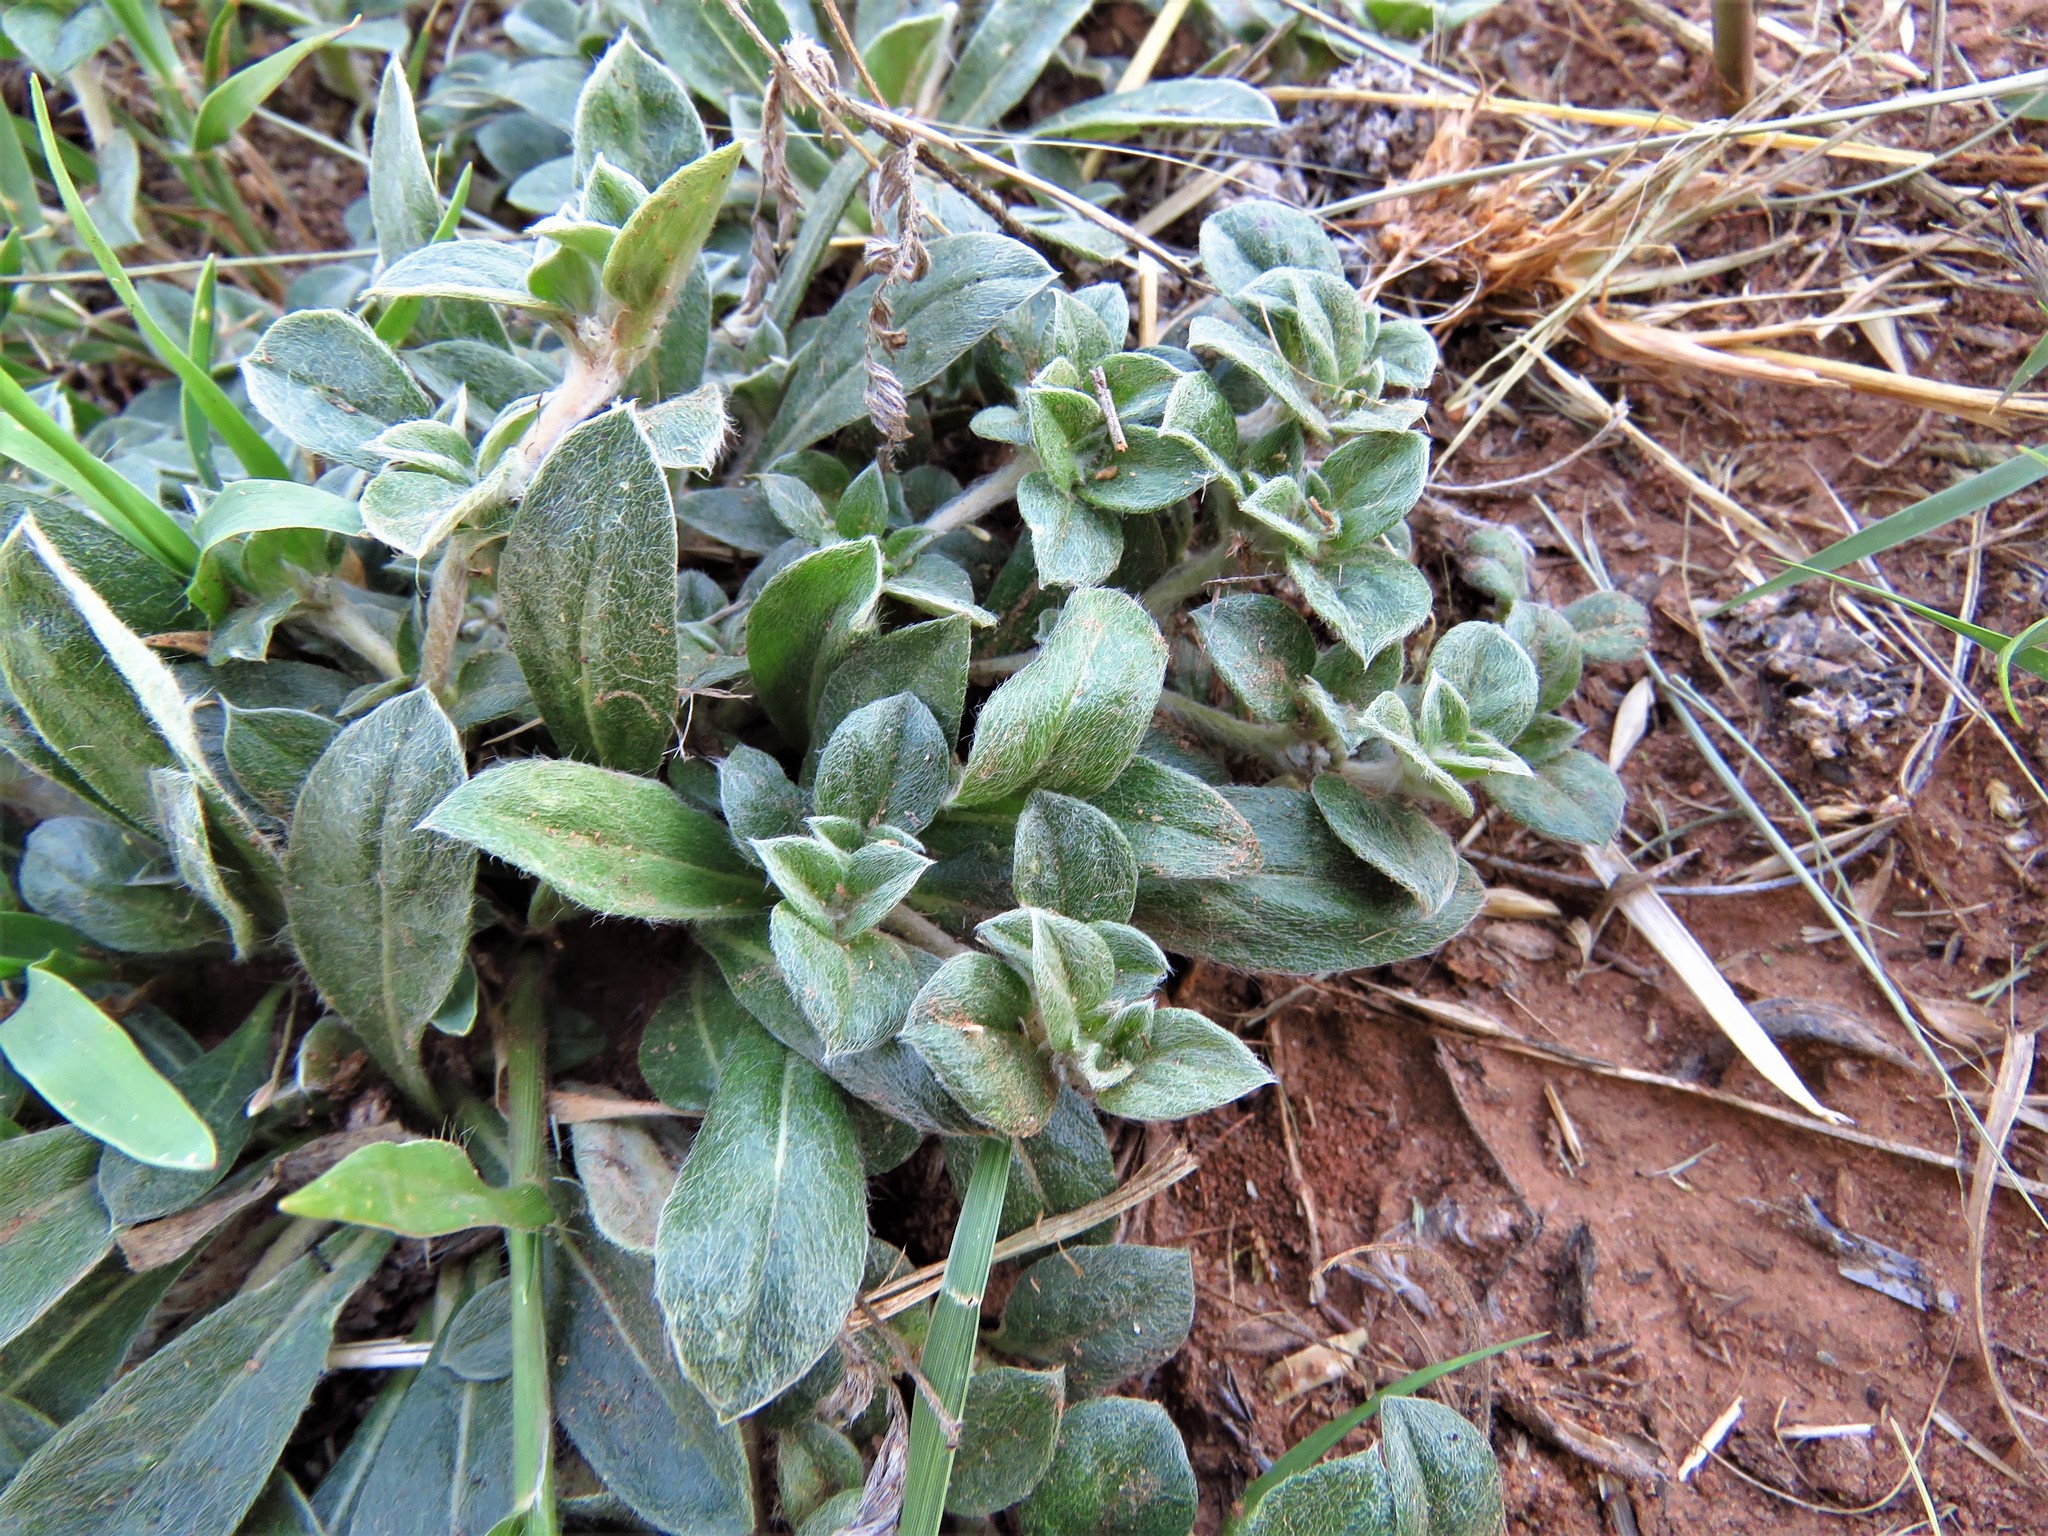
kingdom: Plantae
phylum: Tracheophyta
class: Magnoliopsida
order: Caryophyllales
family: Amaranthaceae
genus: Gomphrena
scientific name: Gomphrena lanuparonychioides
